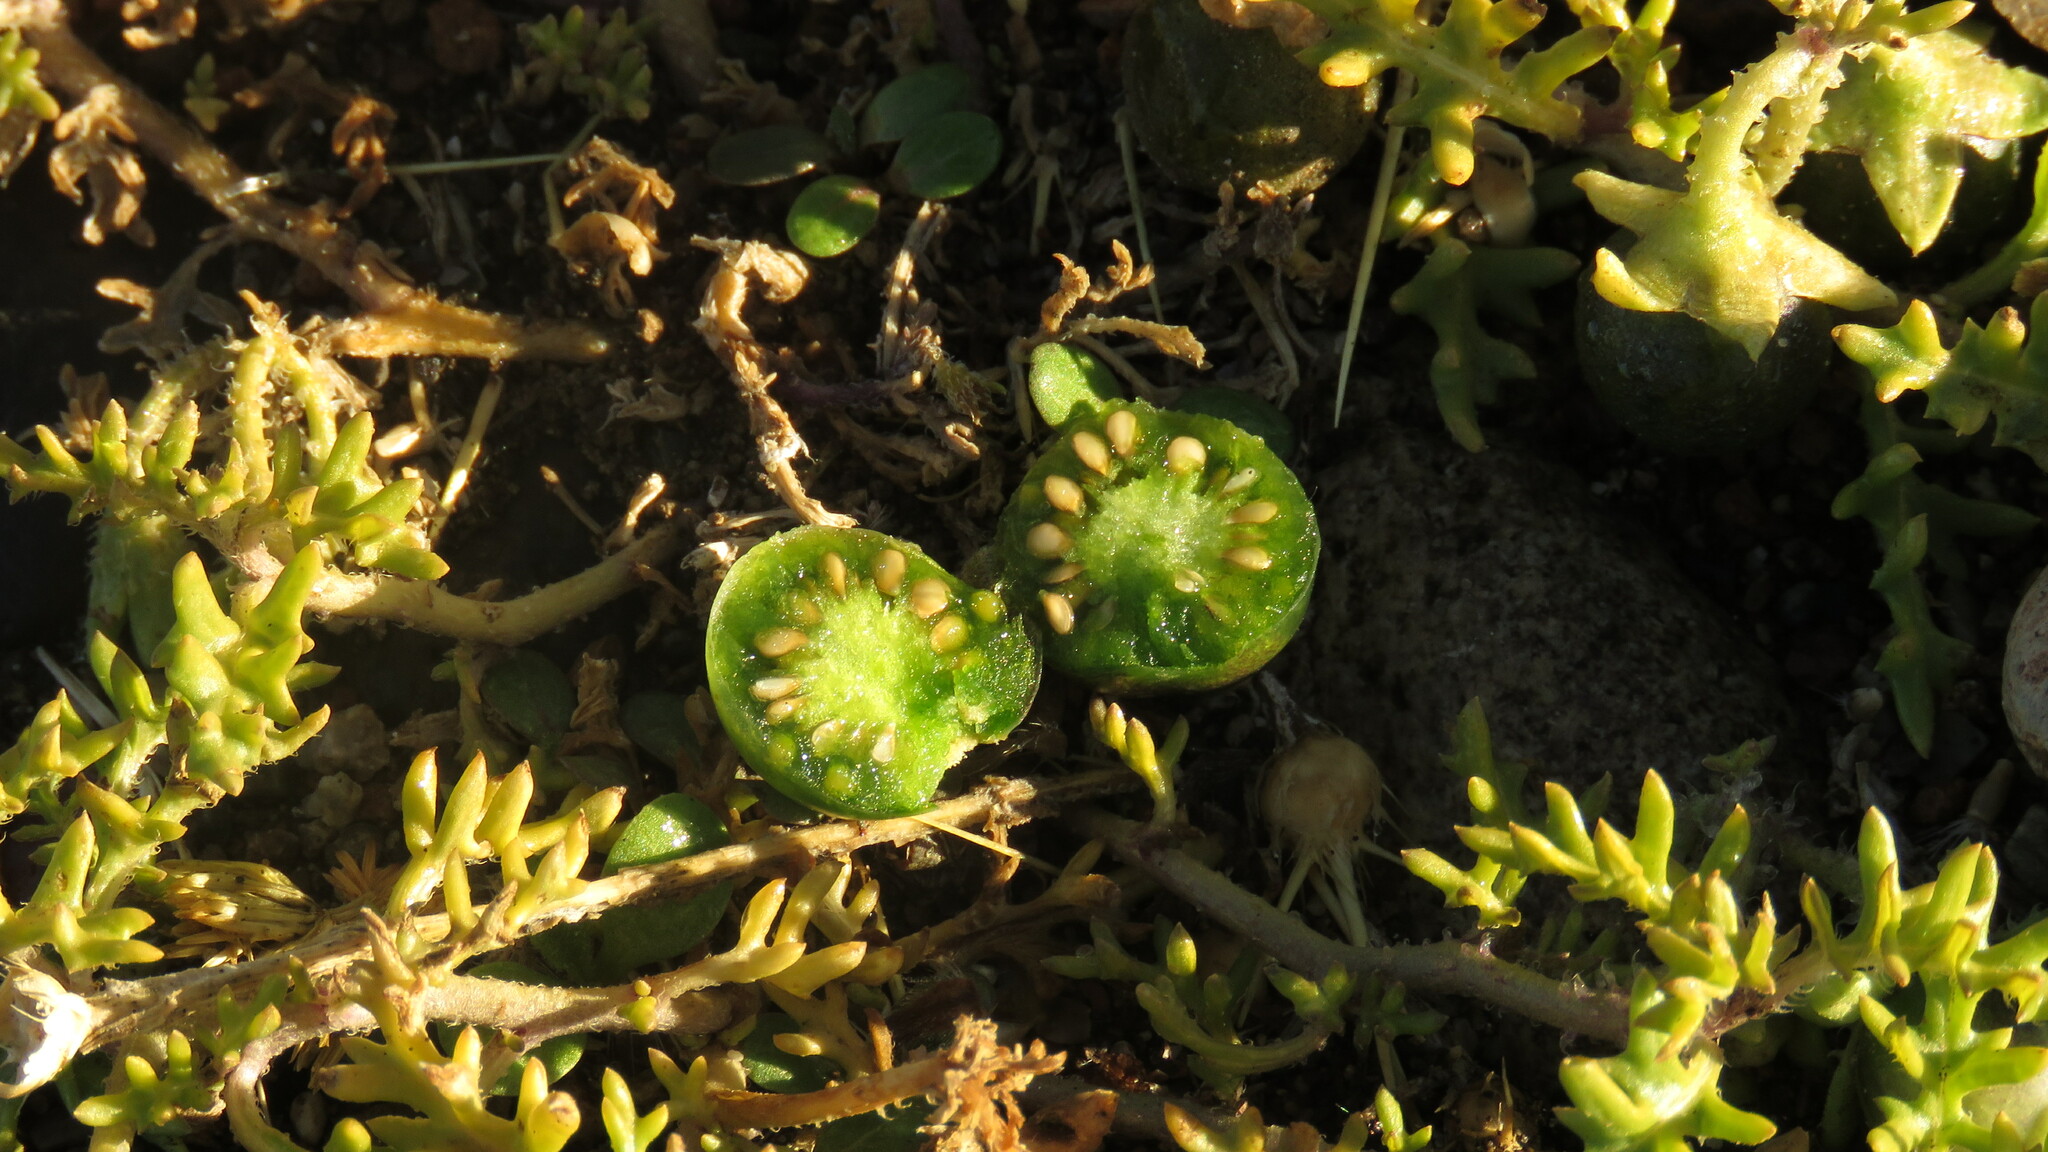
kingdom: Plantae
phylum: Tracheophyta
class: Magnoliopsida
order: Solanales
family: Solanaceae
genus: Solanum
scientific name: Solanum triflorum
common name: Small nightshade
